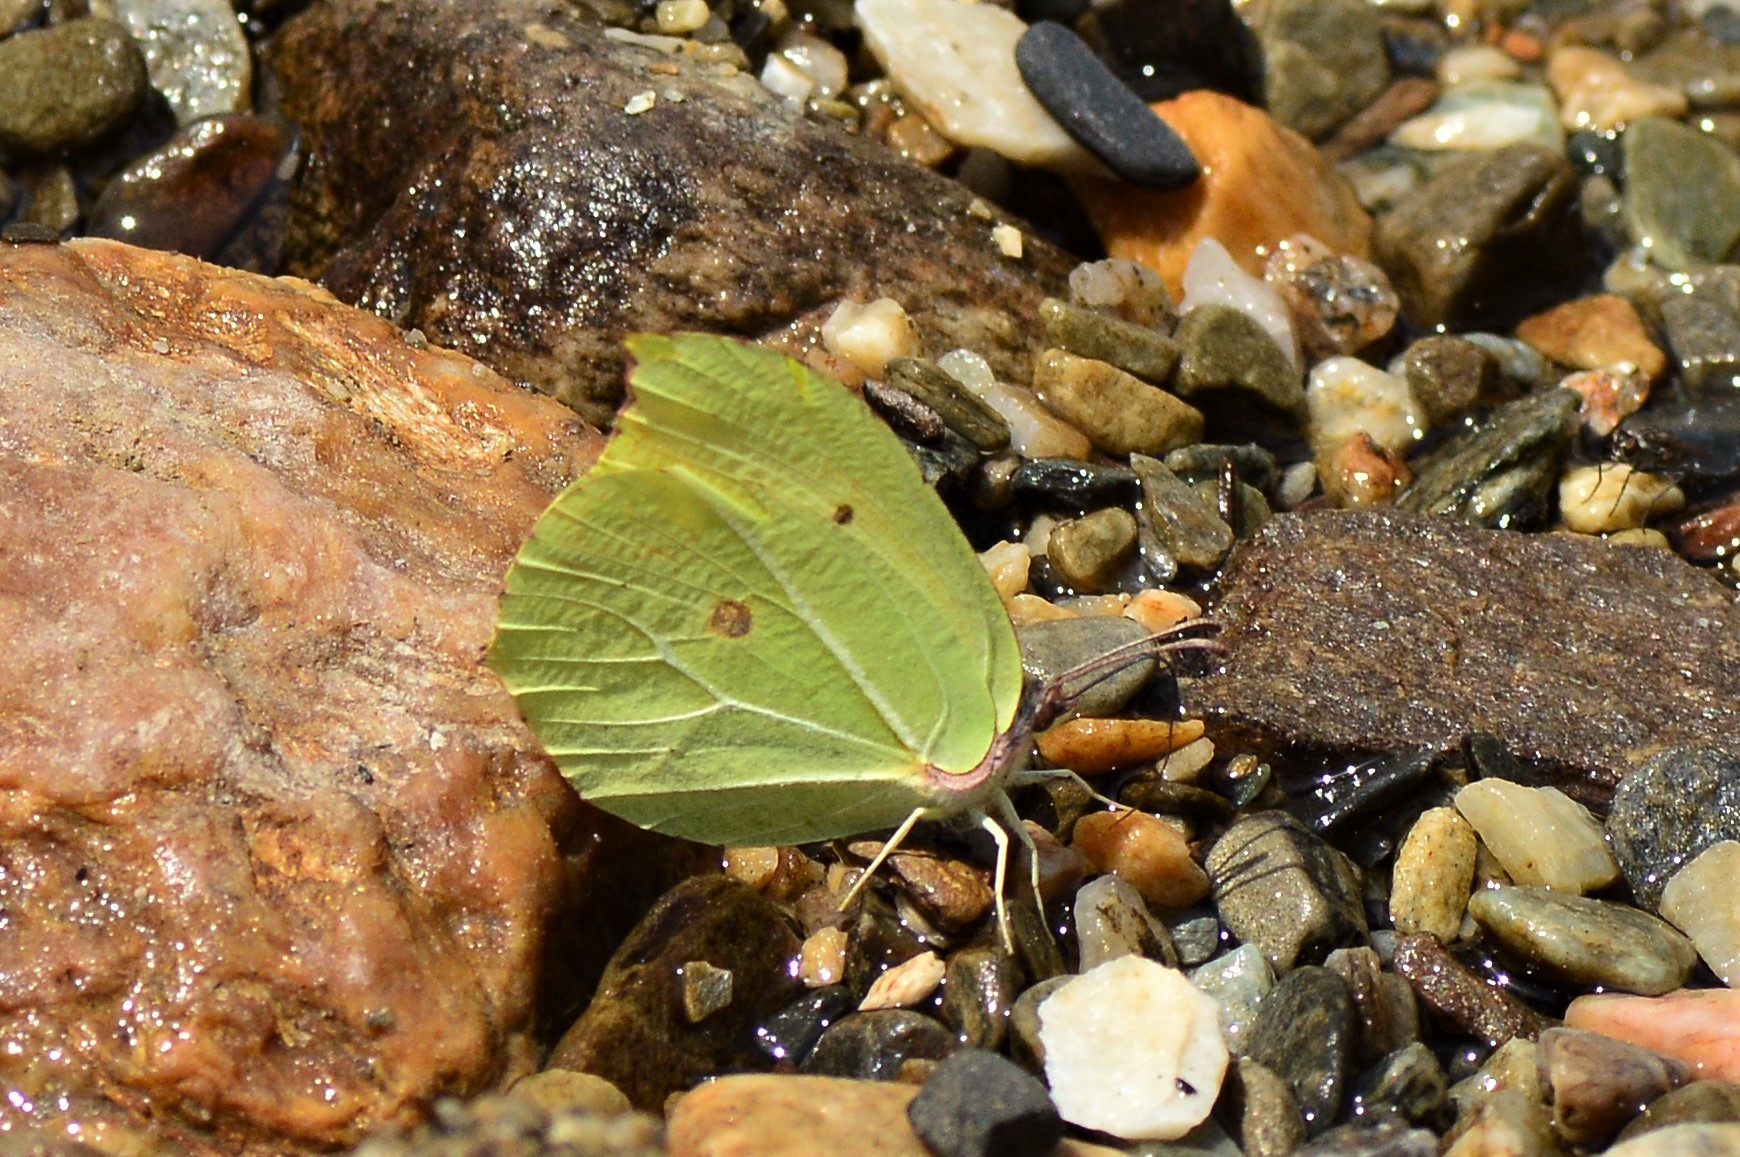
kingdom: Animalia
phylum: Arthropoda
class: Insecta
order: Lepidoptera
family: Pieridae
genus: Gonepteryx
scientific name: Gonepteryx
